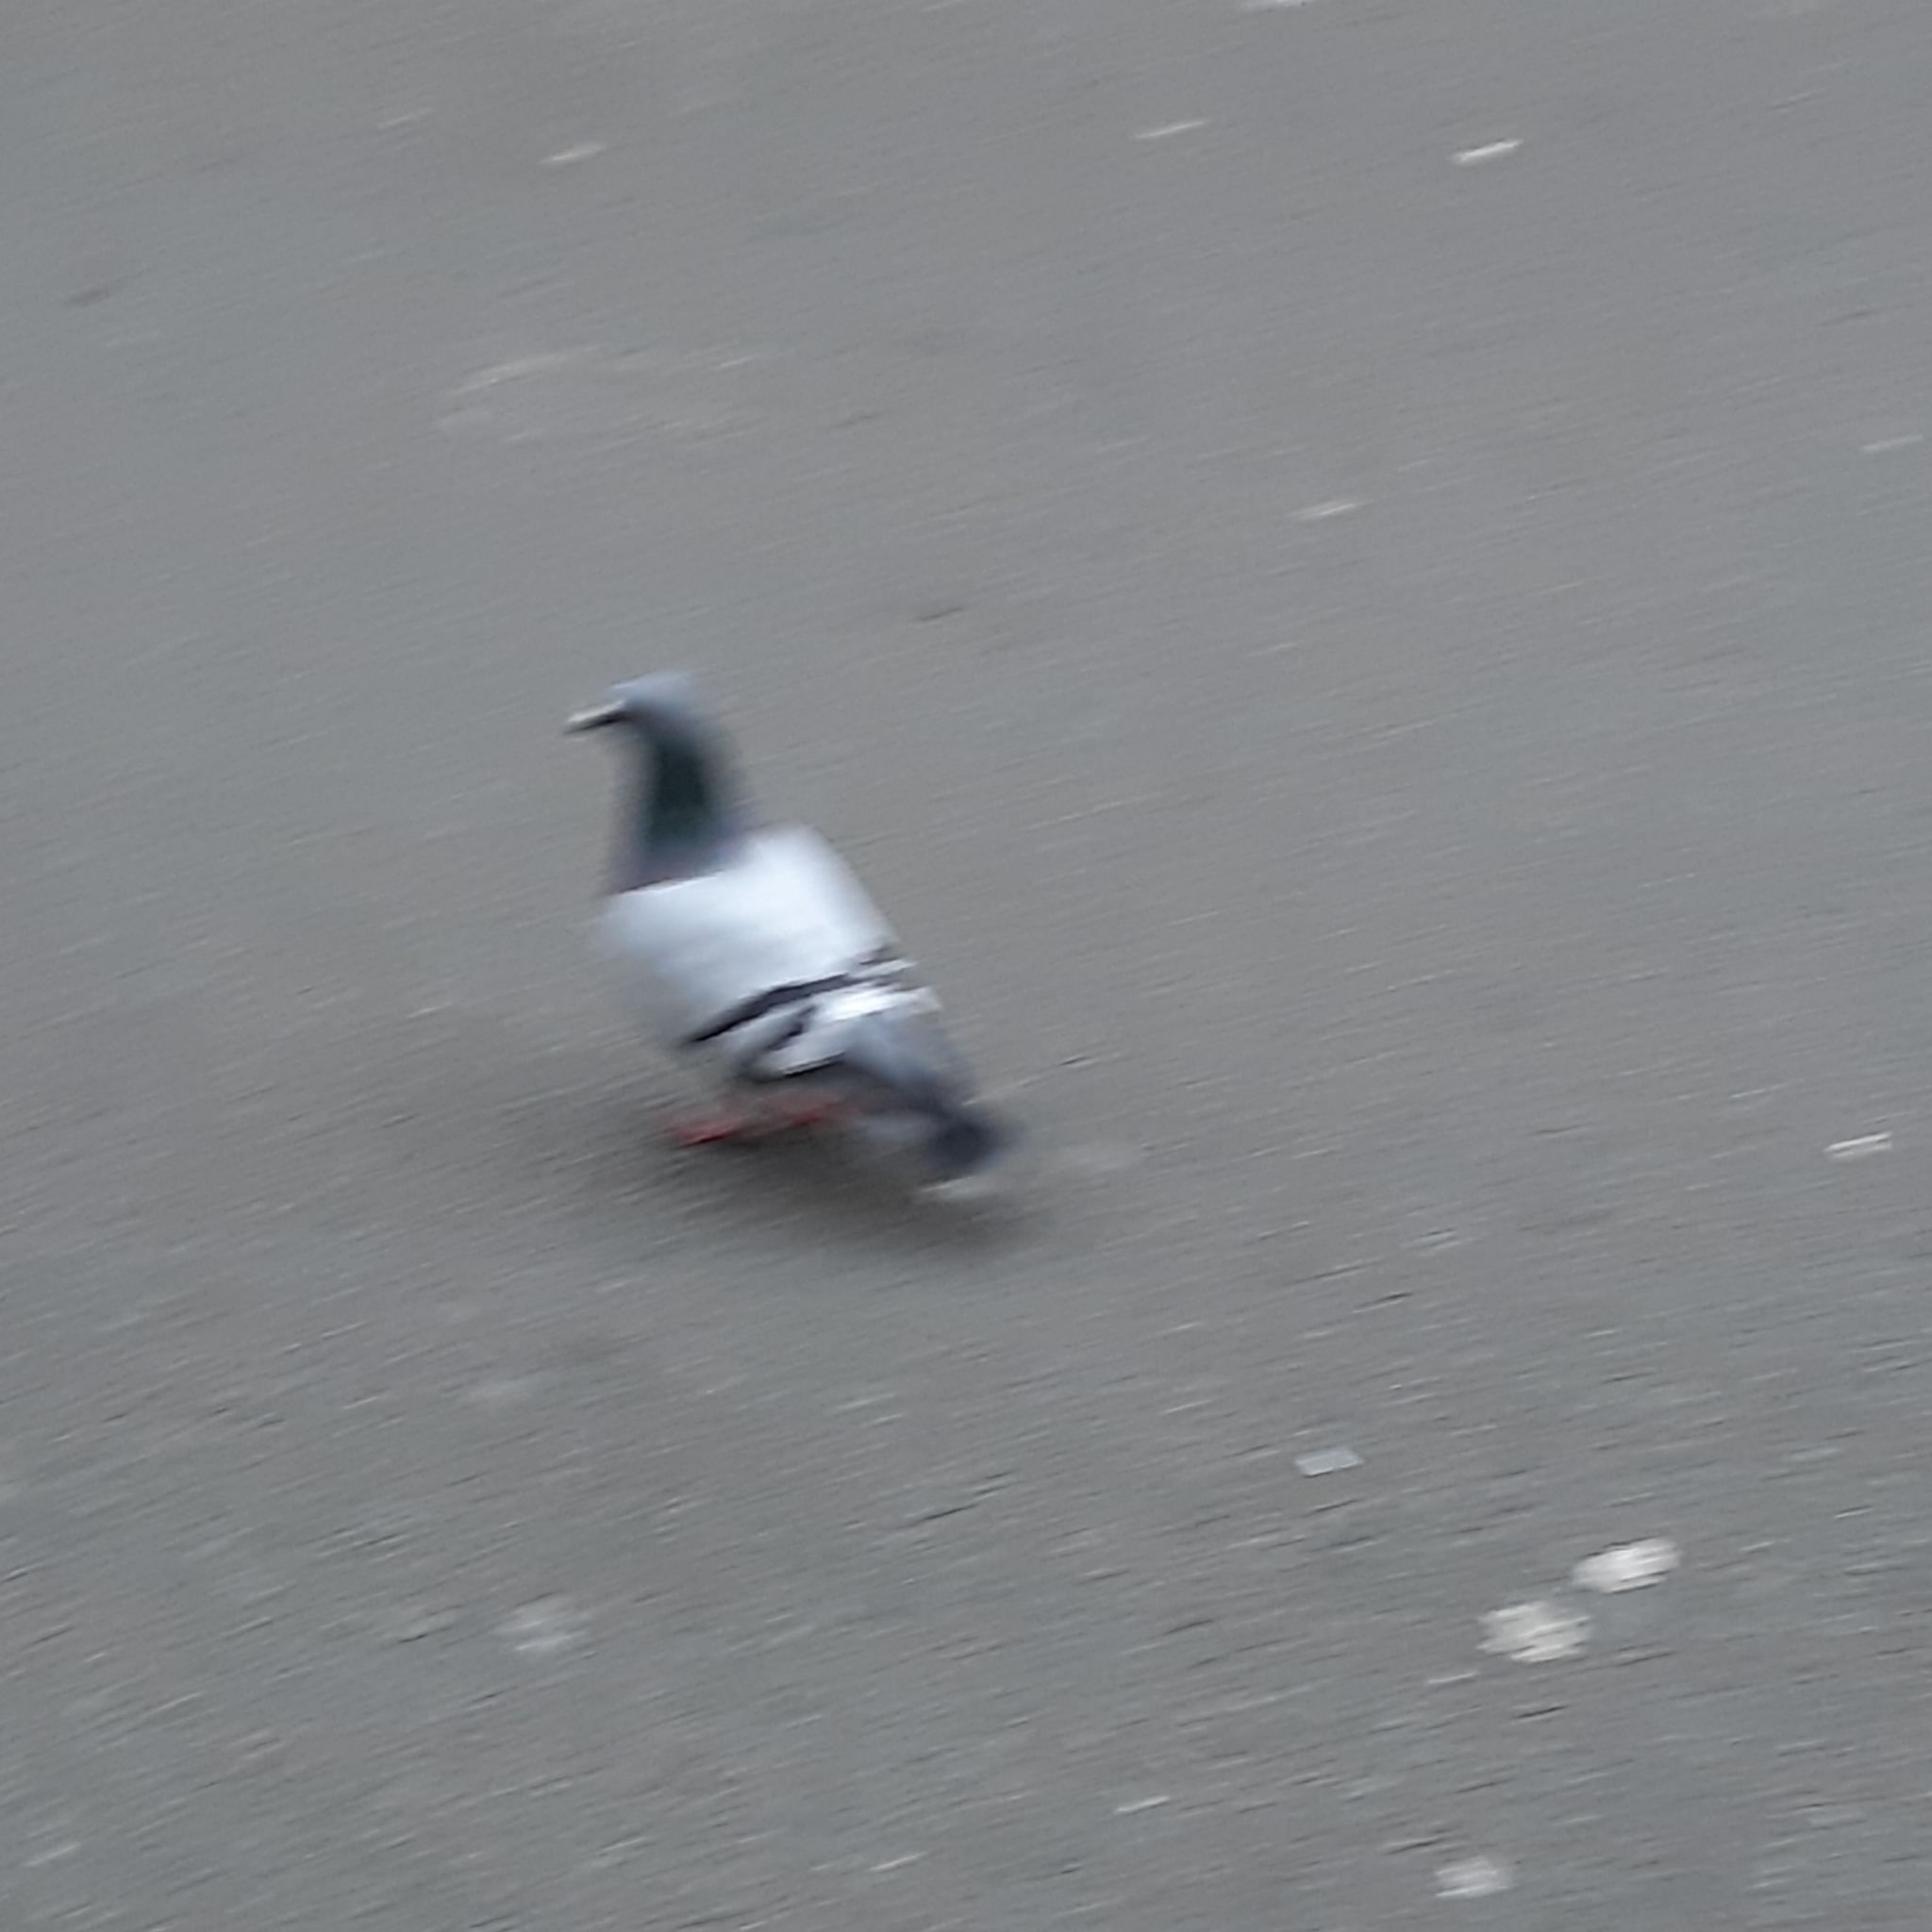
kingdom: Animalia
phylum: Chordata
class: Aves
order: Columbiformes
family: Columbidae
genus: Columba
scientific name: Columba livia
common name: Rock pigeon
